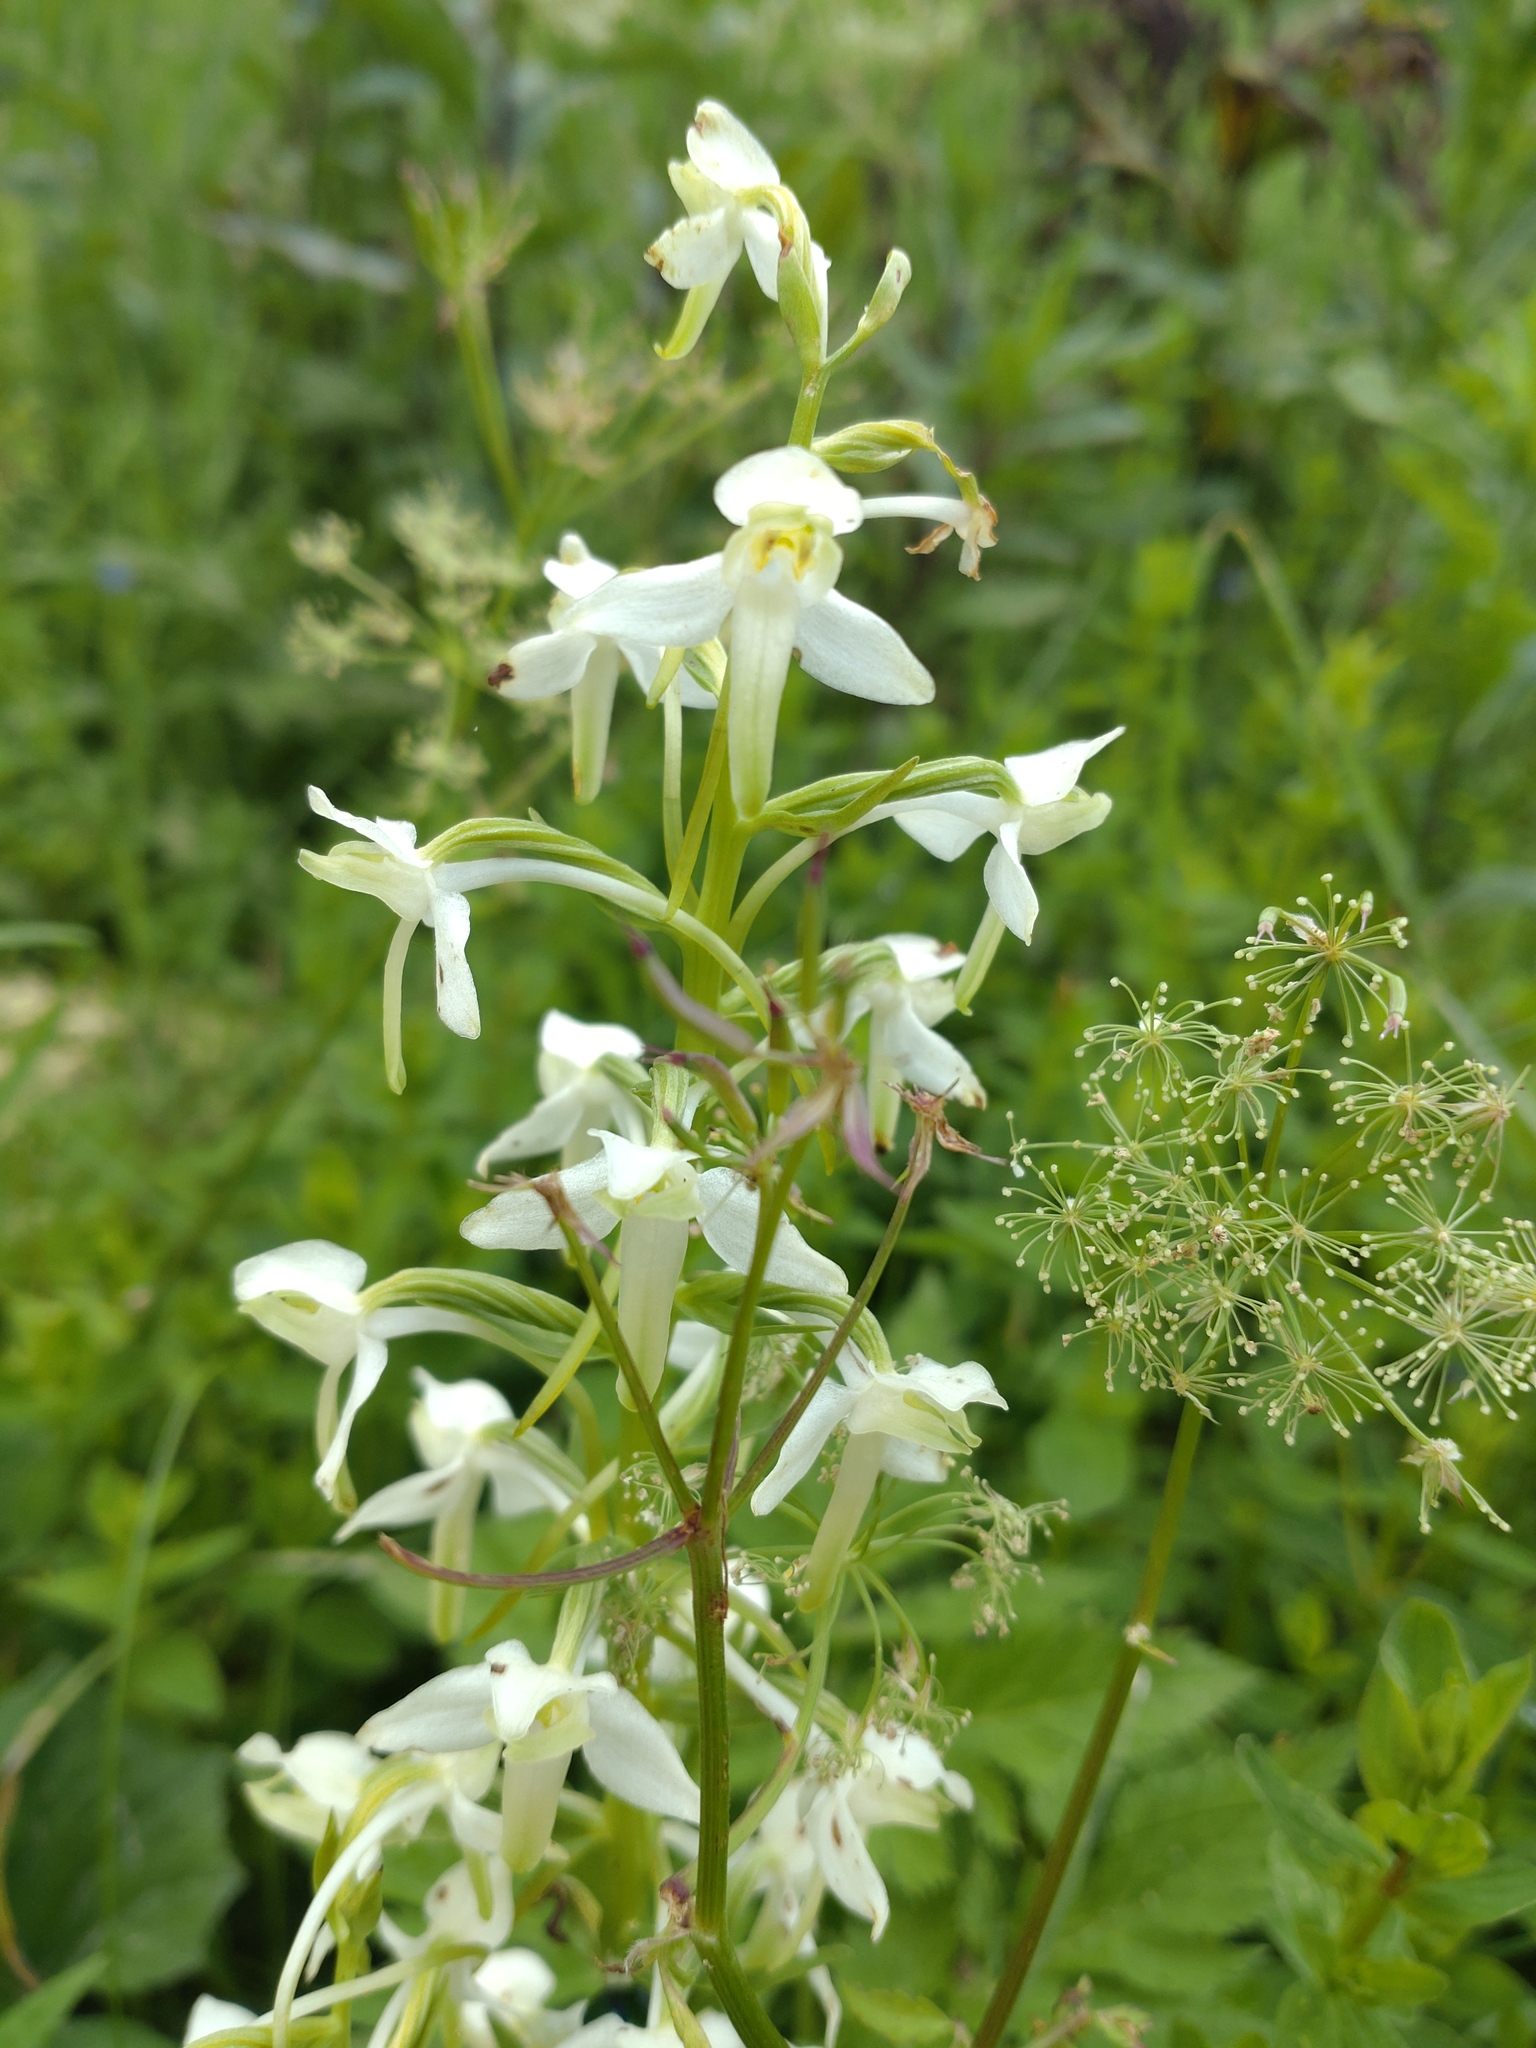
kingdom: Plantae
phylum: Tracheophyta
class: Liliopsida
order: Asparagales
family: Orchidaceae
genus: Platanthera
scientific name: Platanthera bifolia
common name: Lesser butterfly-orchid
